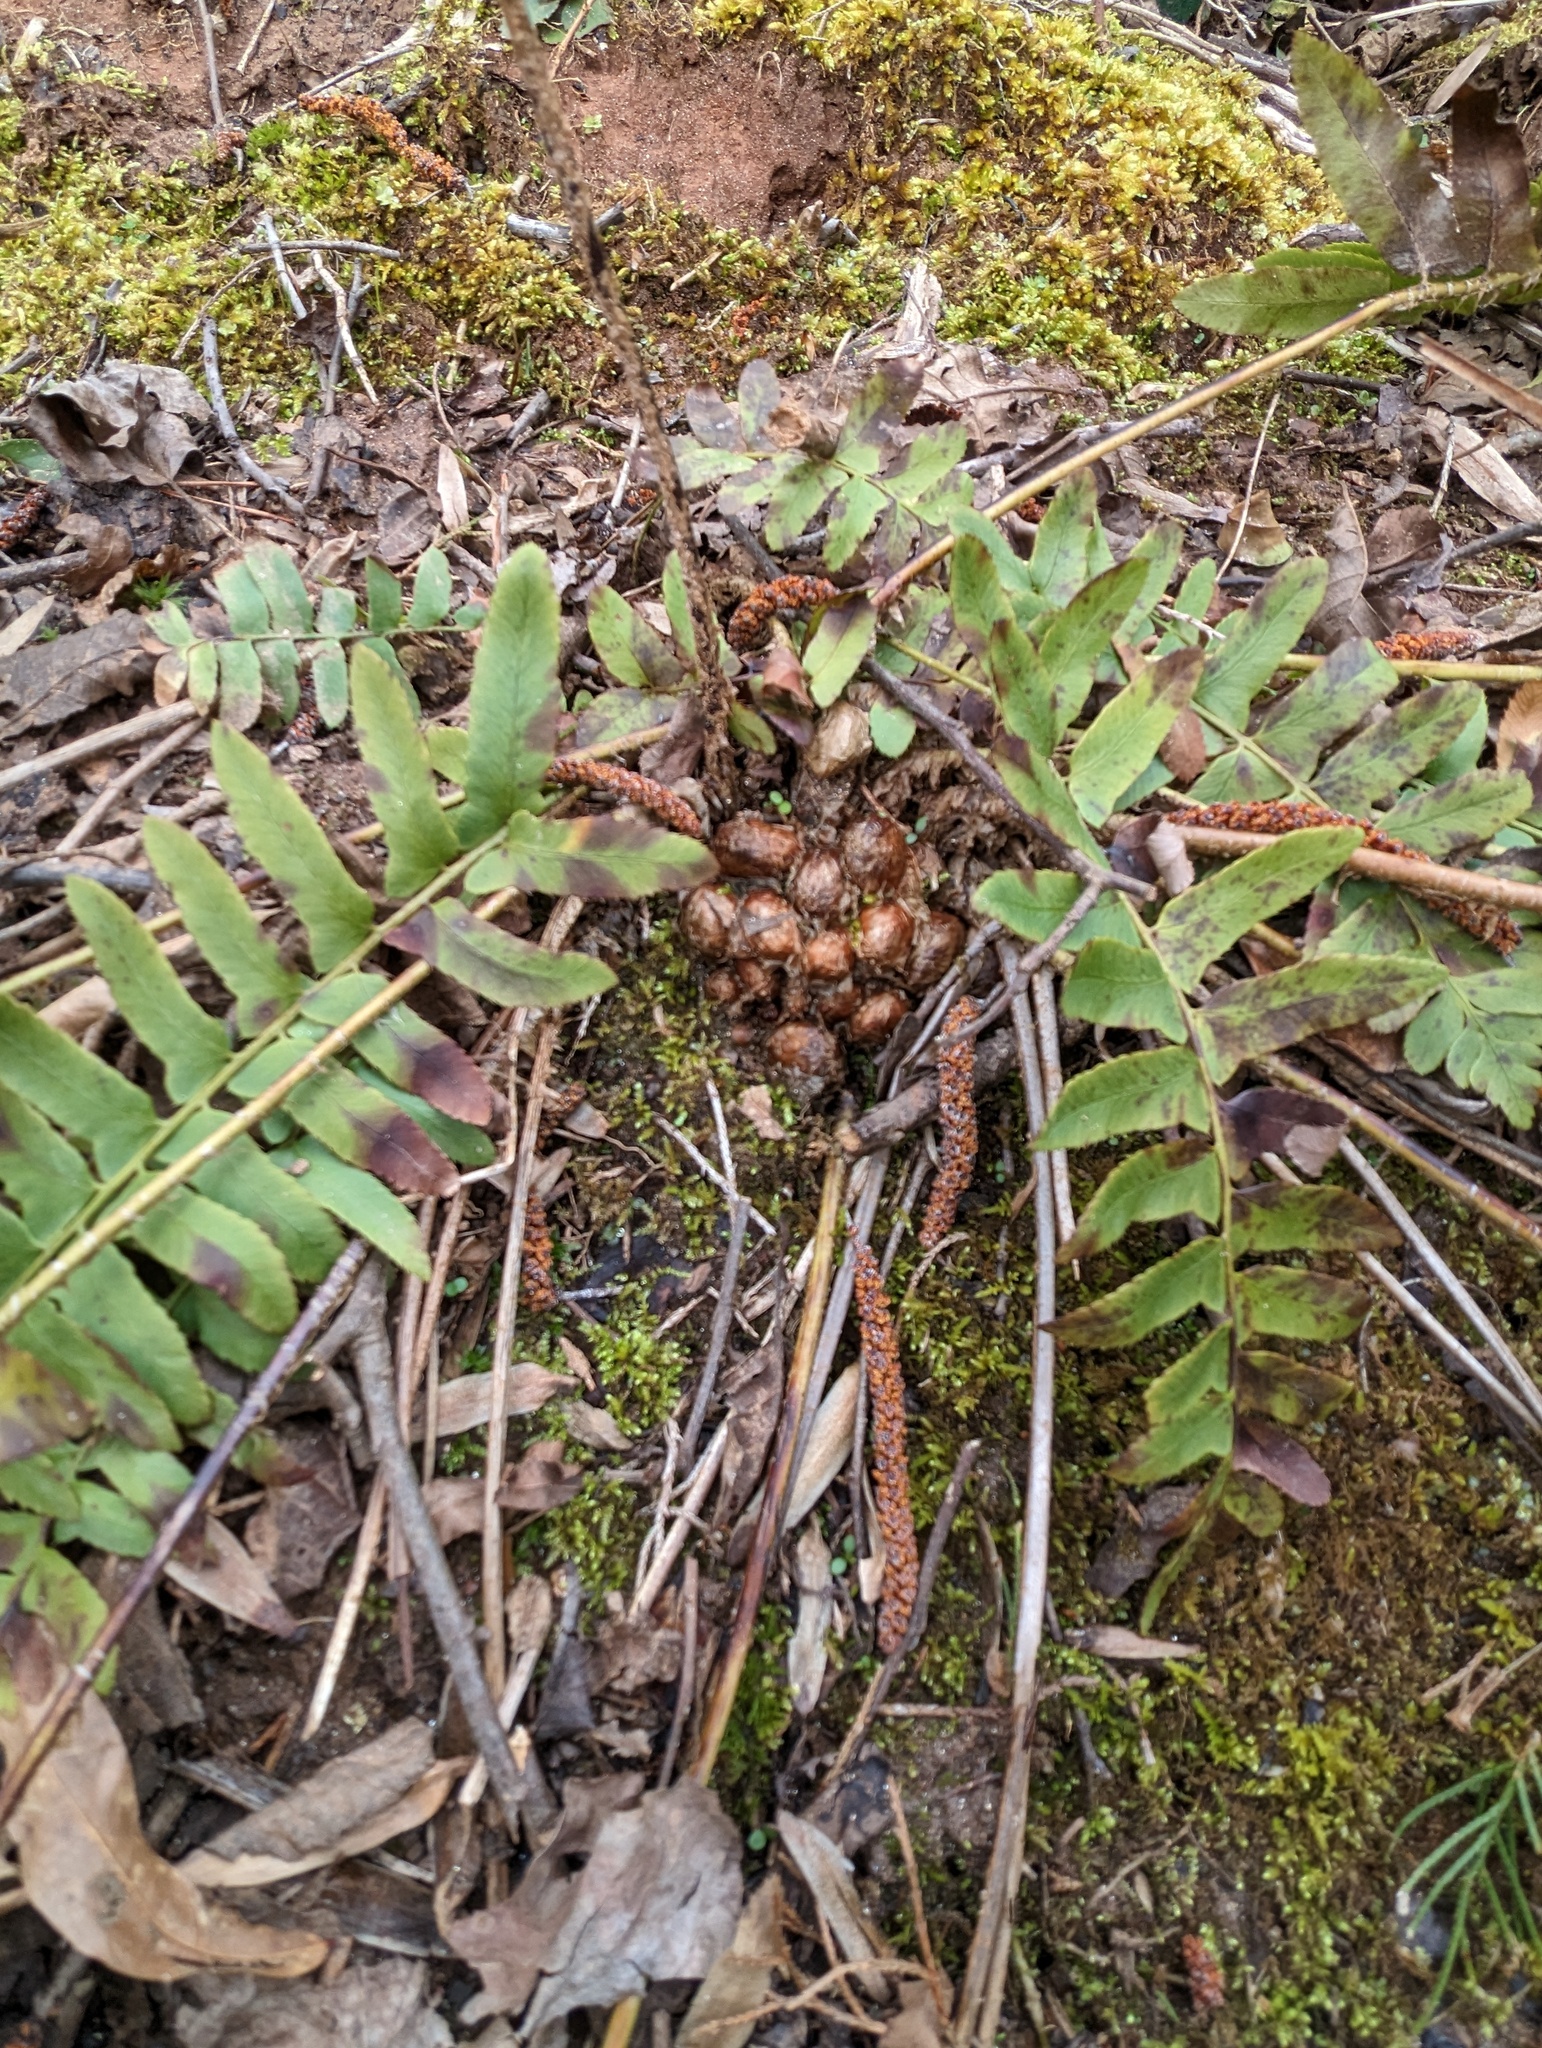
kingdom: Plantae
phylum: Tracheophyta
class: Polypodiopsida
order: Polypodiales
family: Dryopteridaceae
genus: Polystichum
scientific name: Polystichum acrostichoides
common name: Christmas fern
